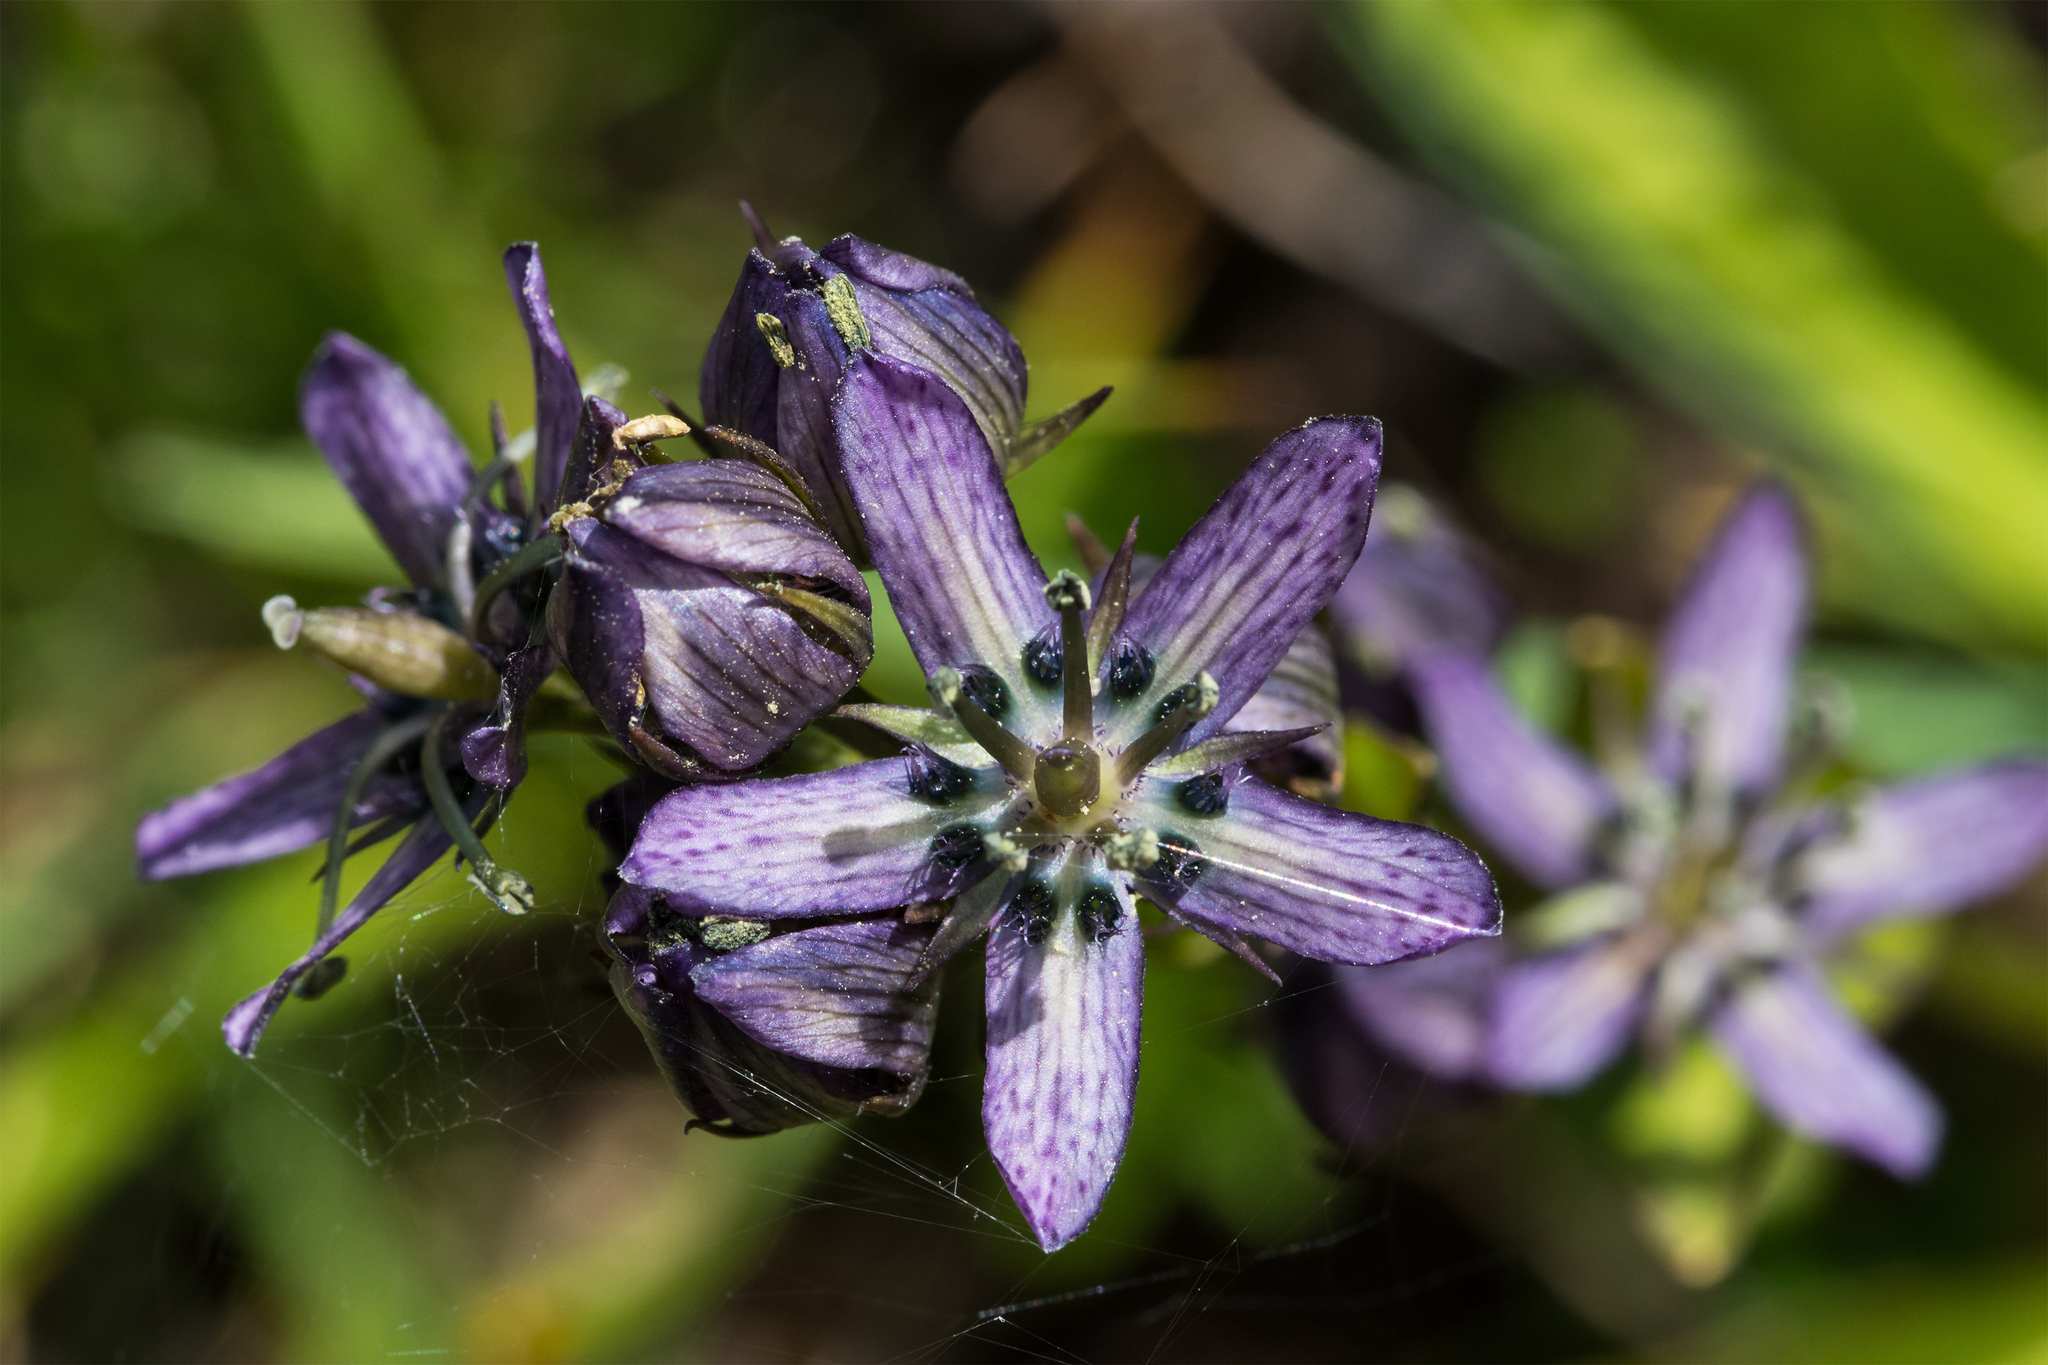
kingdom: Plantae
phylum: Tracheophyta
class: Magnoliopsida
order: Gentianales
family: Gentianaceae
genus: Swertia
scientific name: Swertia perennis
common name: Alpine bog swertia
